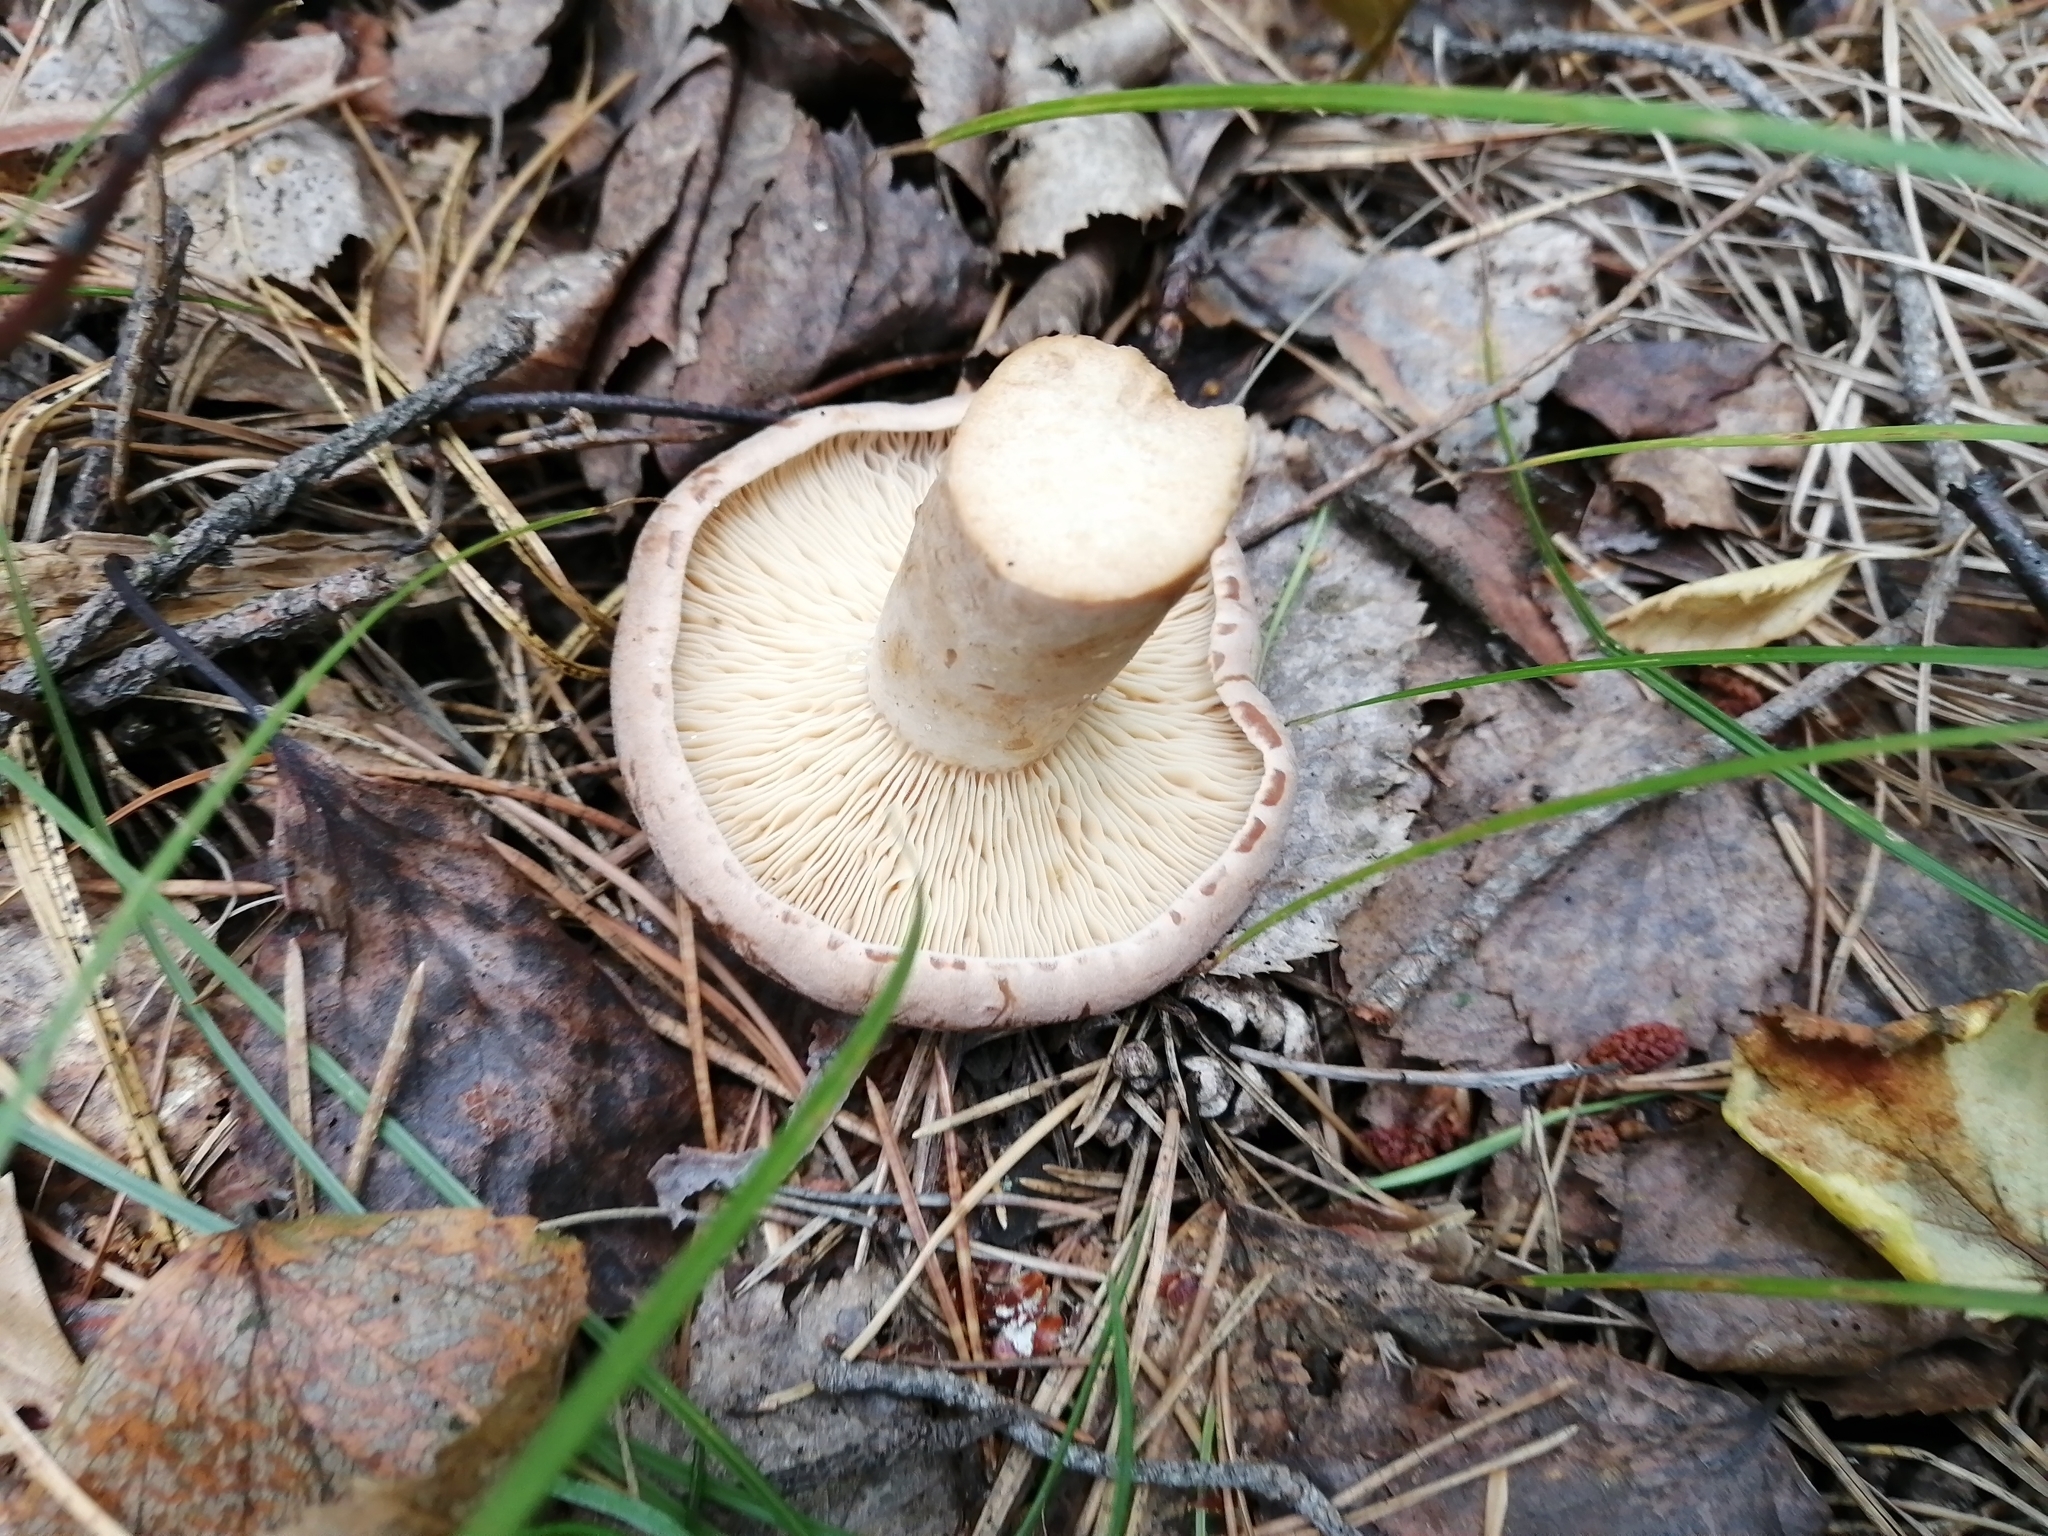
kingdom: Fungi
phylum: Basidiomycota
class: Agaricomycetes
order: Russulales
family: Russulaceae
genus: Lactarius
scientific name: Lactarius helvus
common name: Fenugreek milkcap
